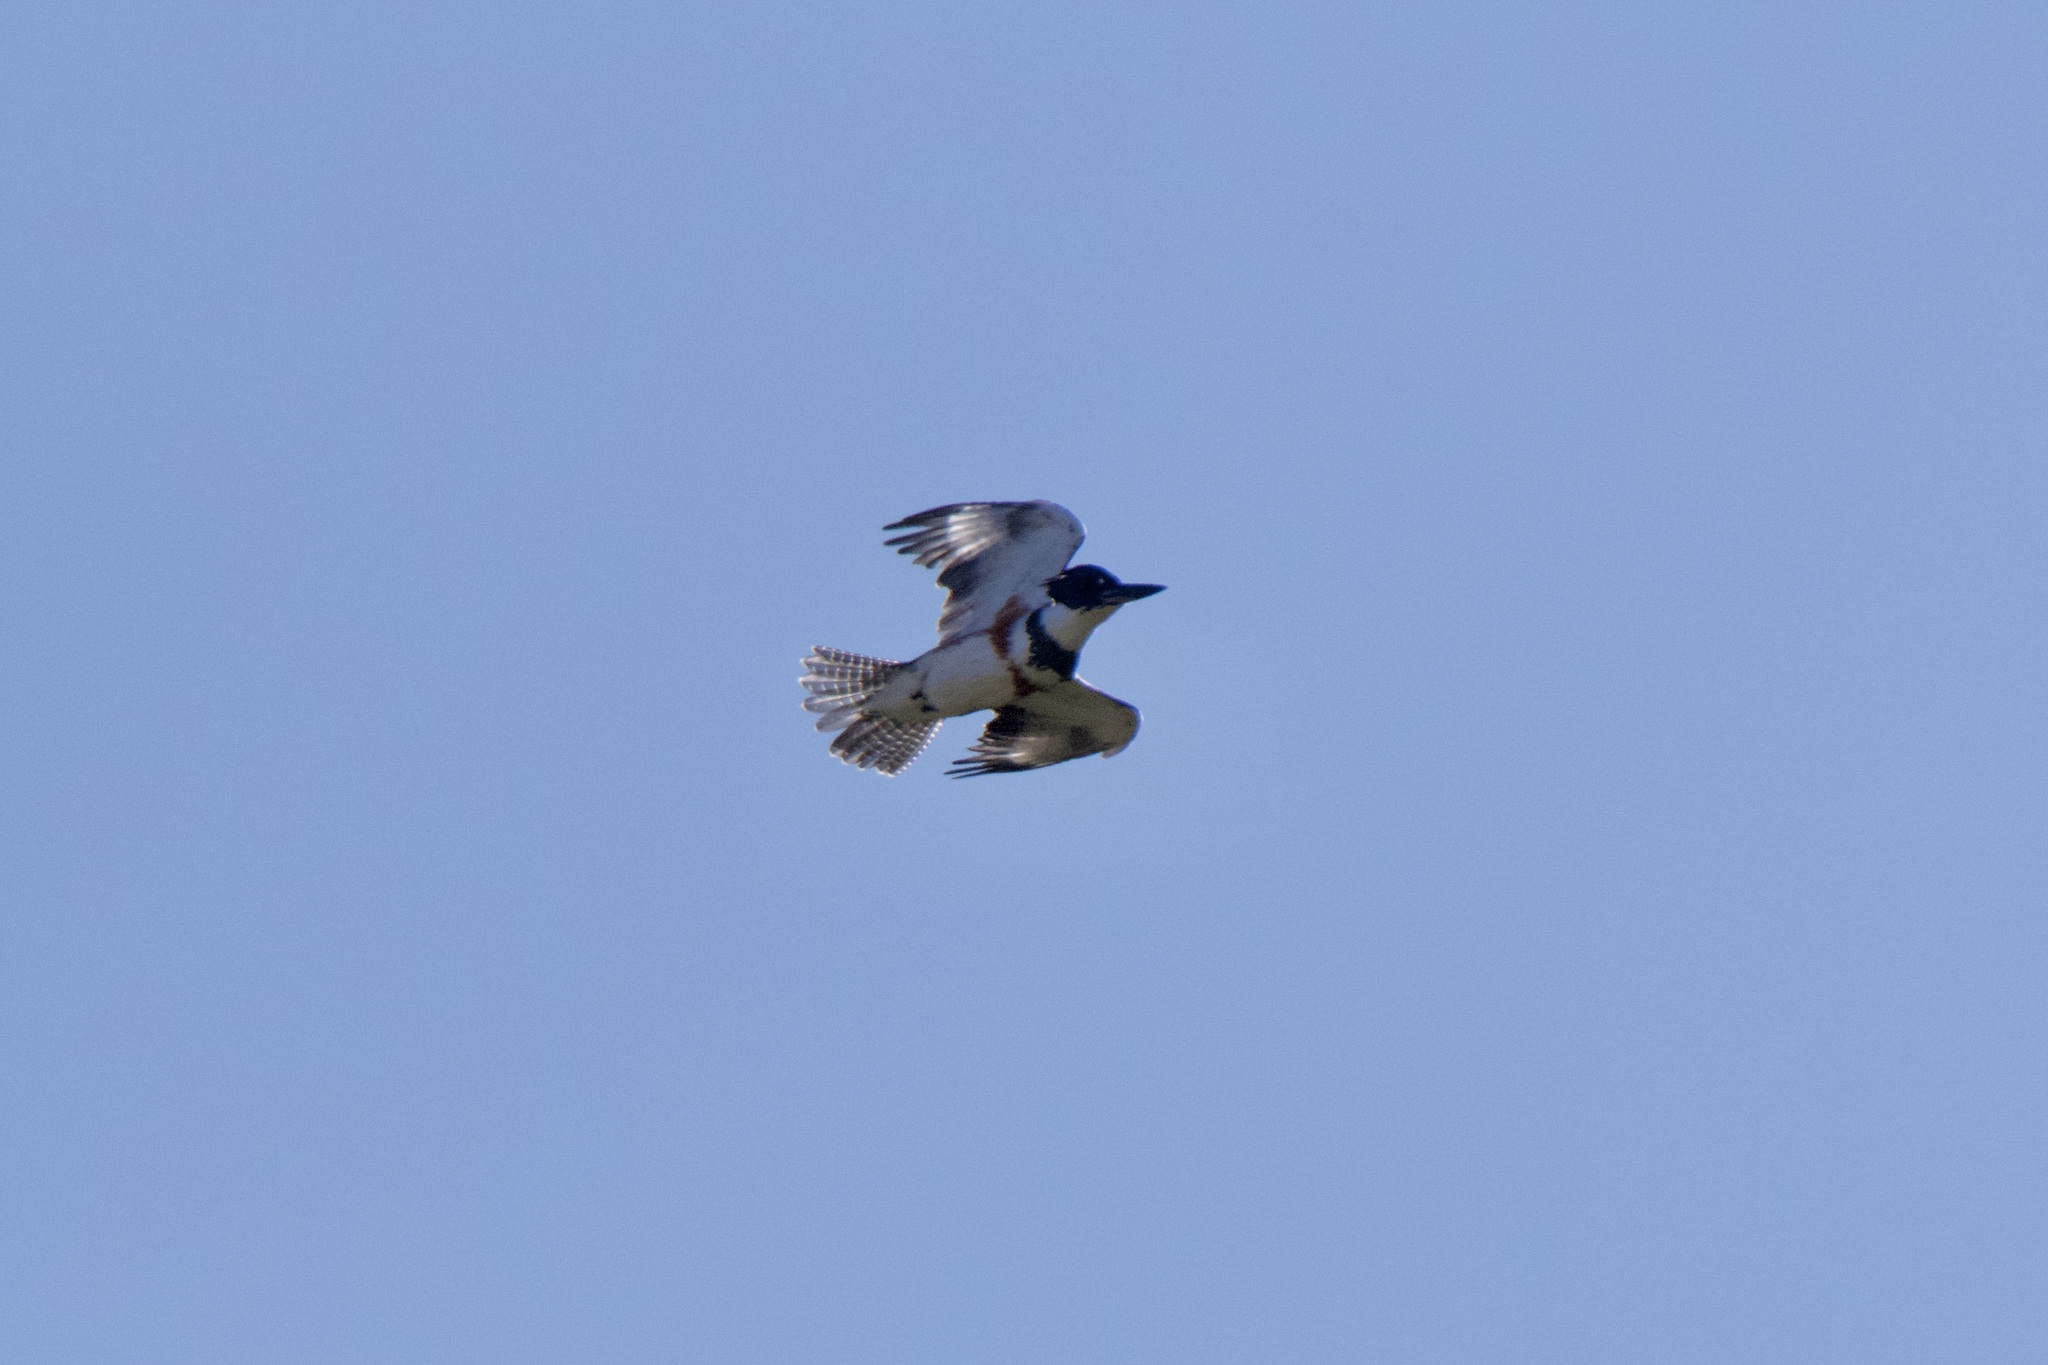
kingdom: Animalia
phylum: Chordata
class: Aves
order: Coraciiformes
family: Alcedinidae
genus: Megaceryle
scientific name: Megaceryle alcyon
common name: Belted kingfisher
